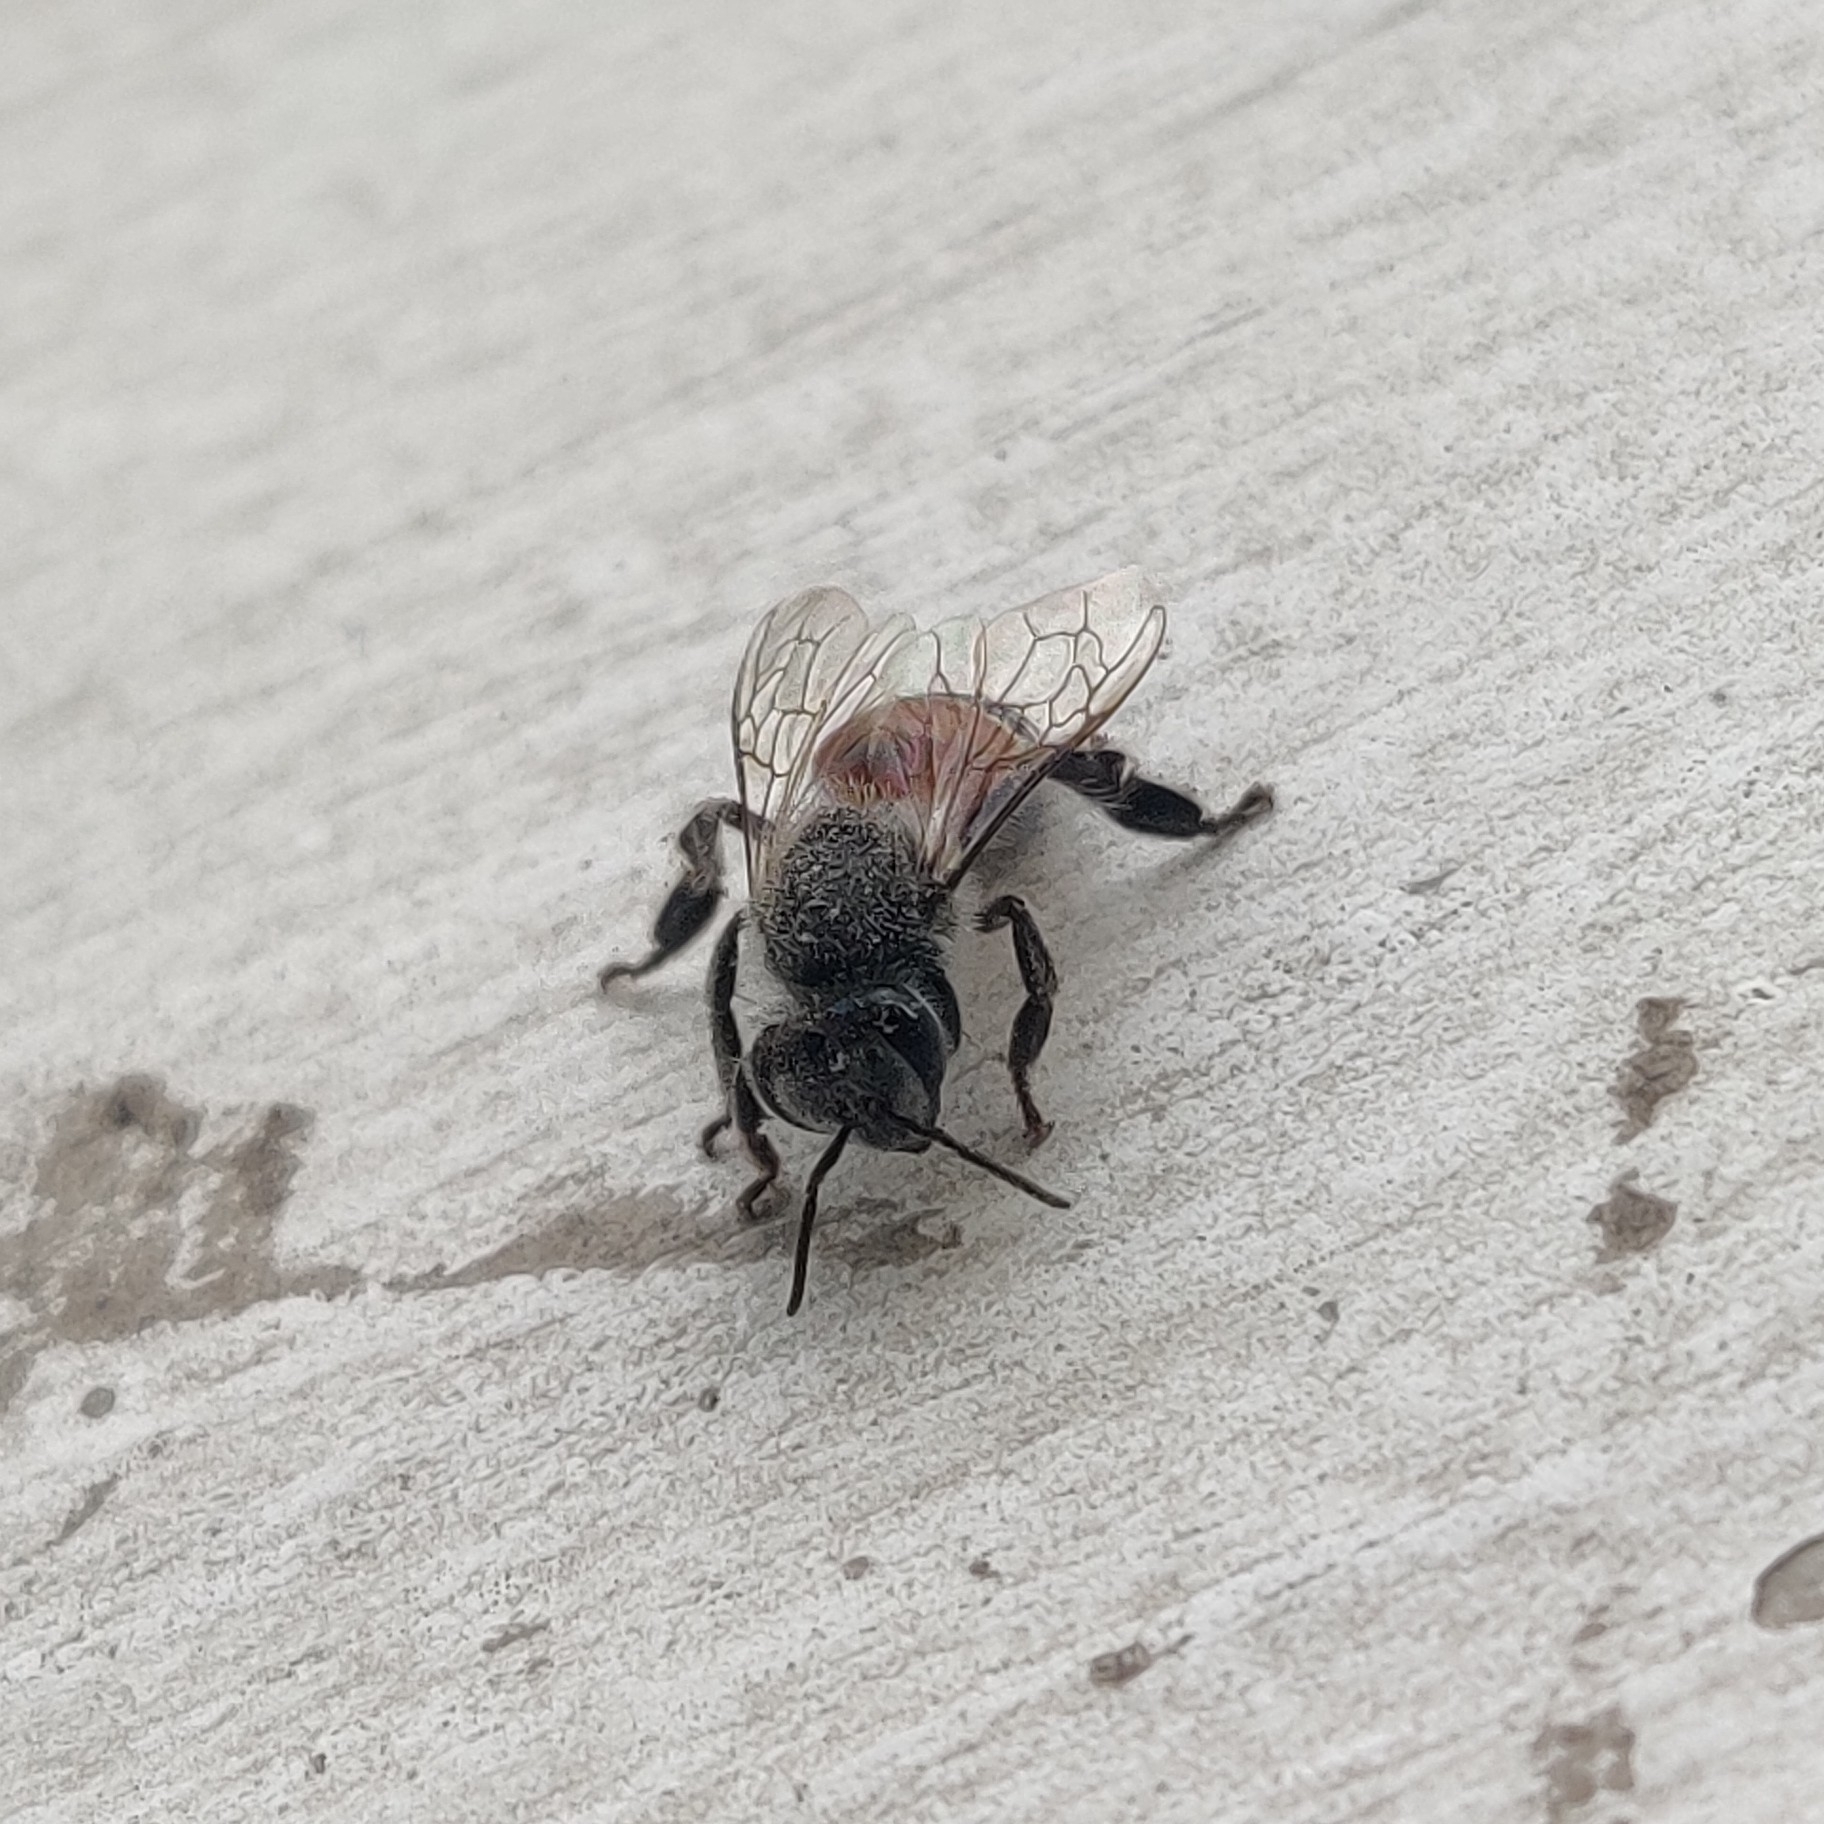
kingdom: Animalia
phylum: Arthropoda
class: Insecta
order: Hymenoptera
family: Apidae
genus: Apis
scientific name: Apis florea
